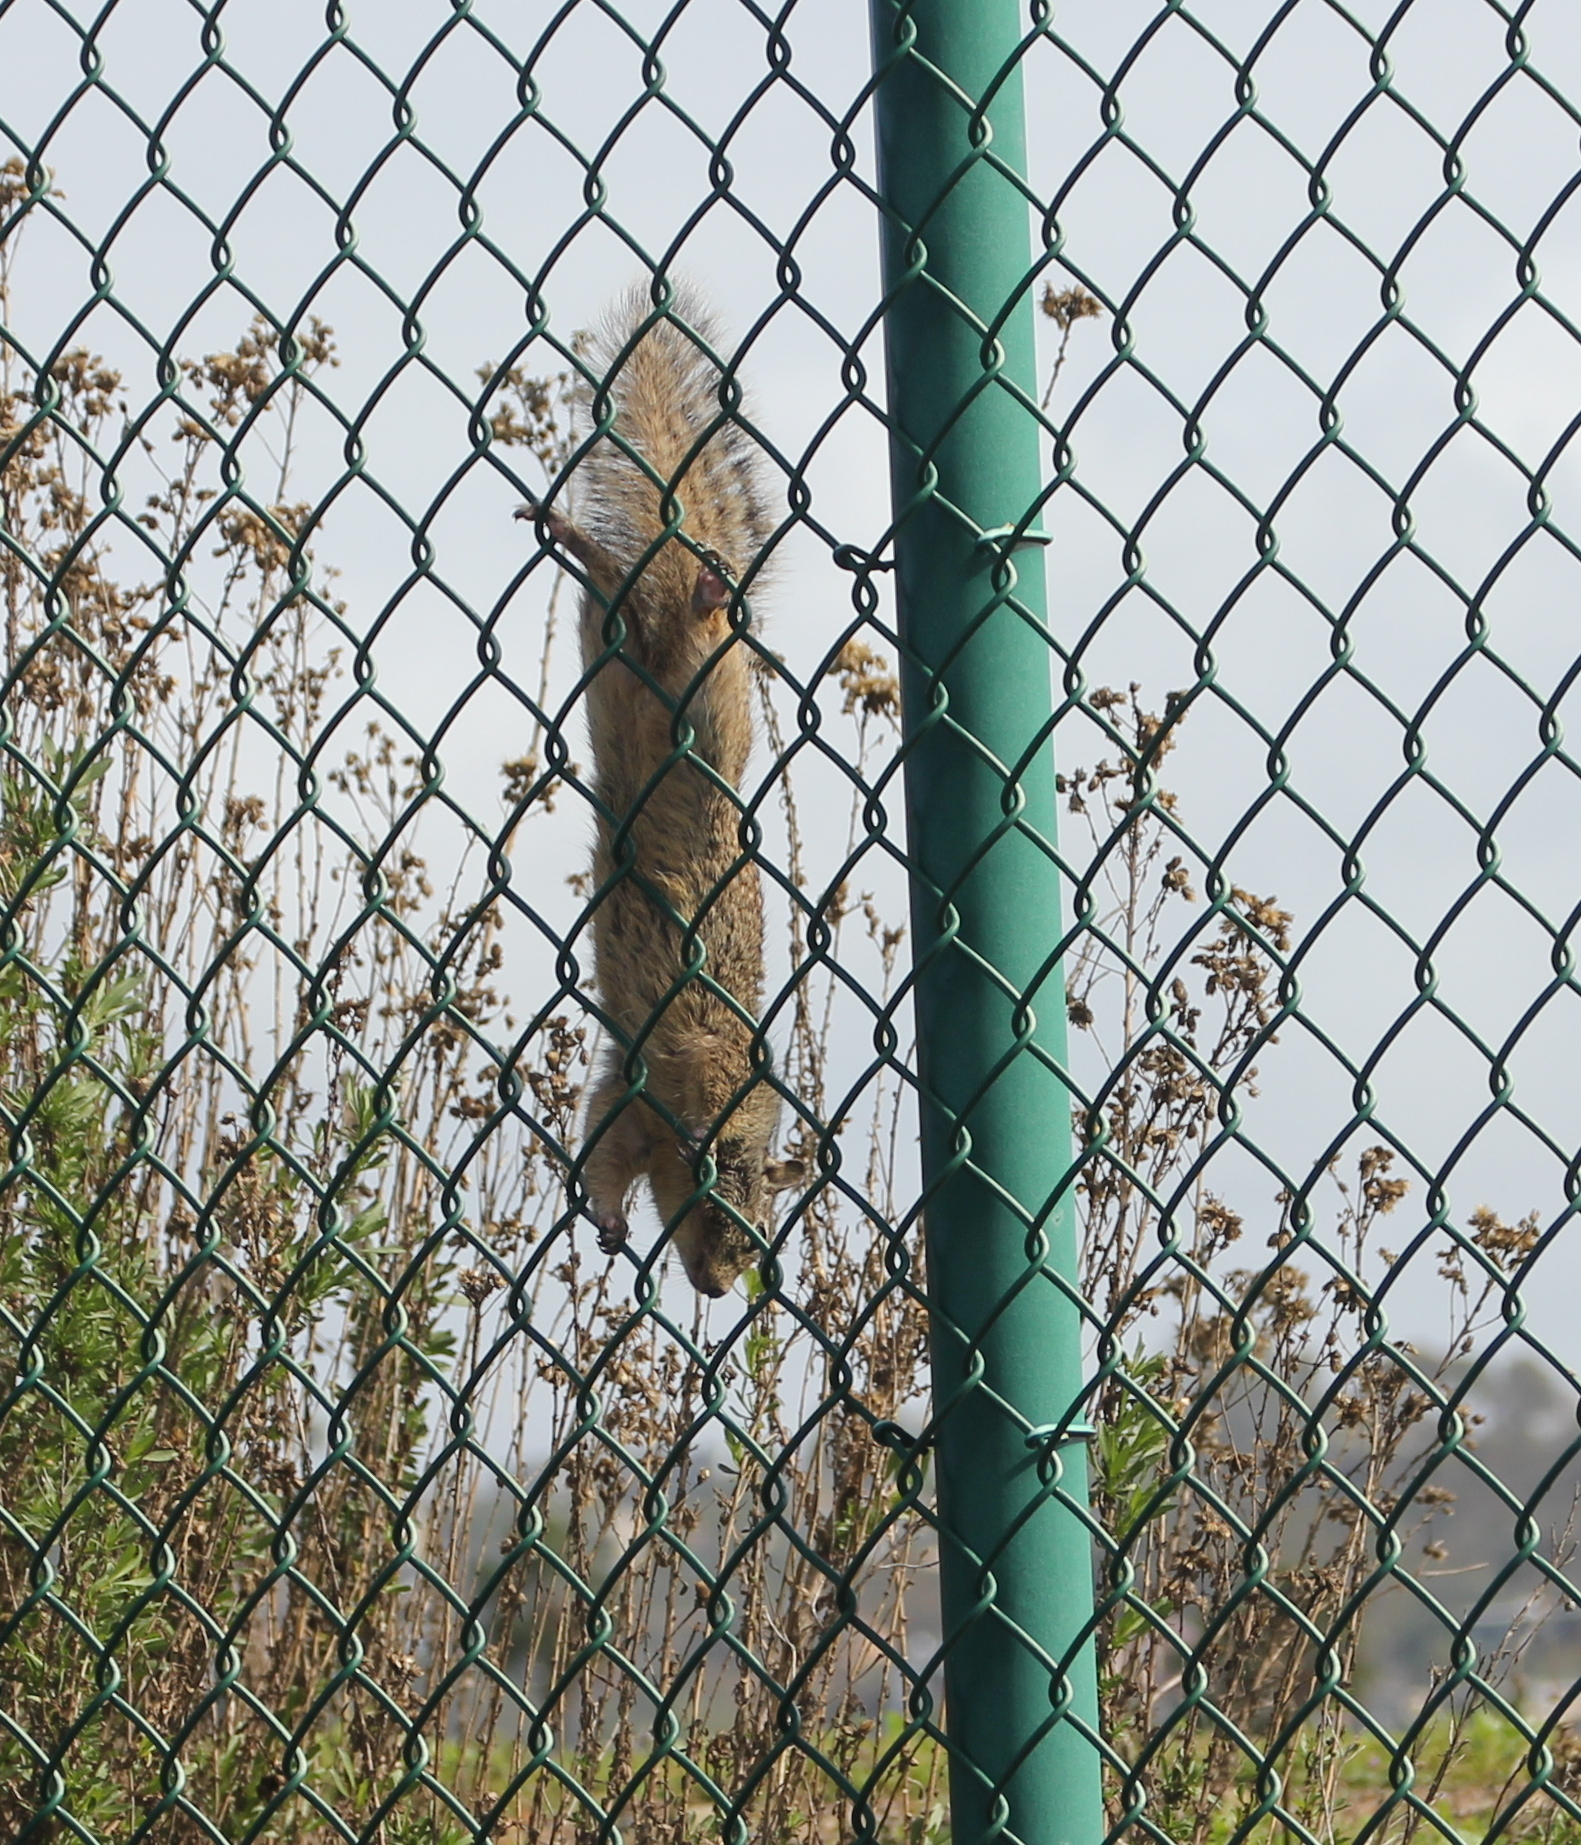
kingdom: Animalia
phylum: Chordata
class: Mammalia
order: Rodentia
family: Sciuridae
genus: Otospermophilus
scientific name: Otospermophilus beecheyi
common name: California ground squirrel
